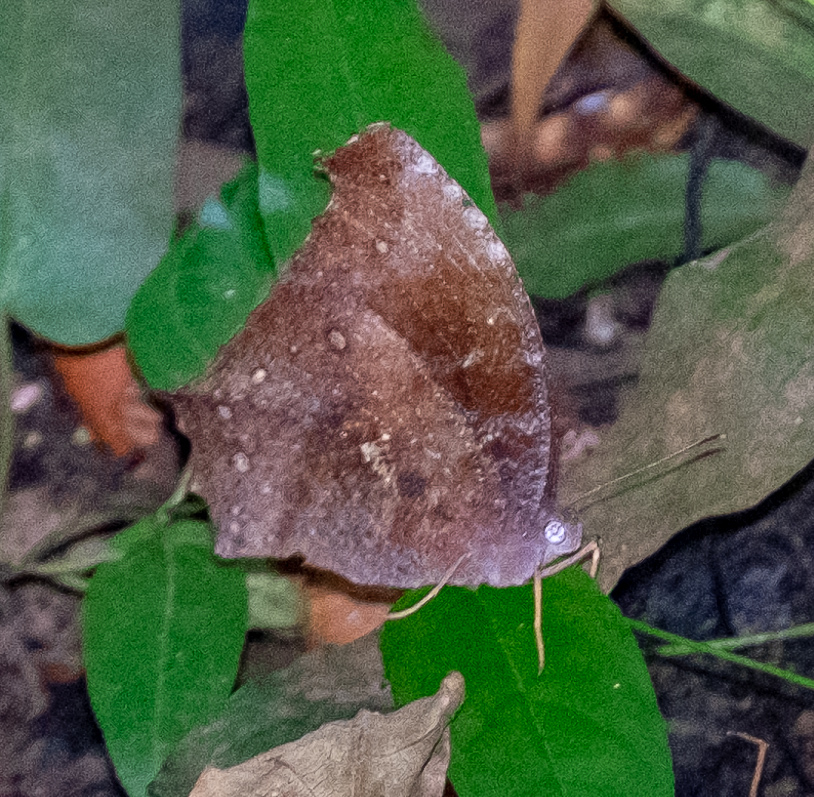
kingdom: Animalia
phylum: Arthropoda
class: Insecta
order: Lepidoptera
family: Nymphalidae
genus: Melanitis
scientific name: Melanitis zitenius
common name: Great evening brown
